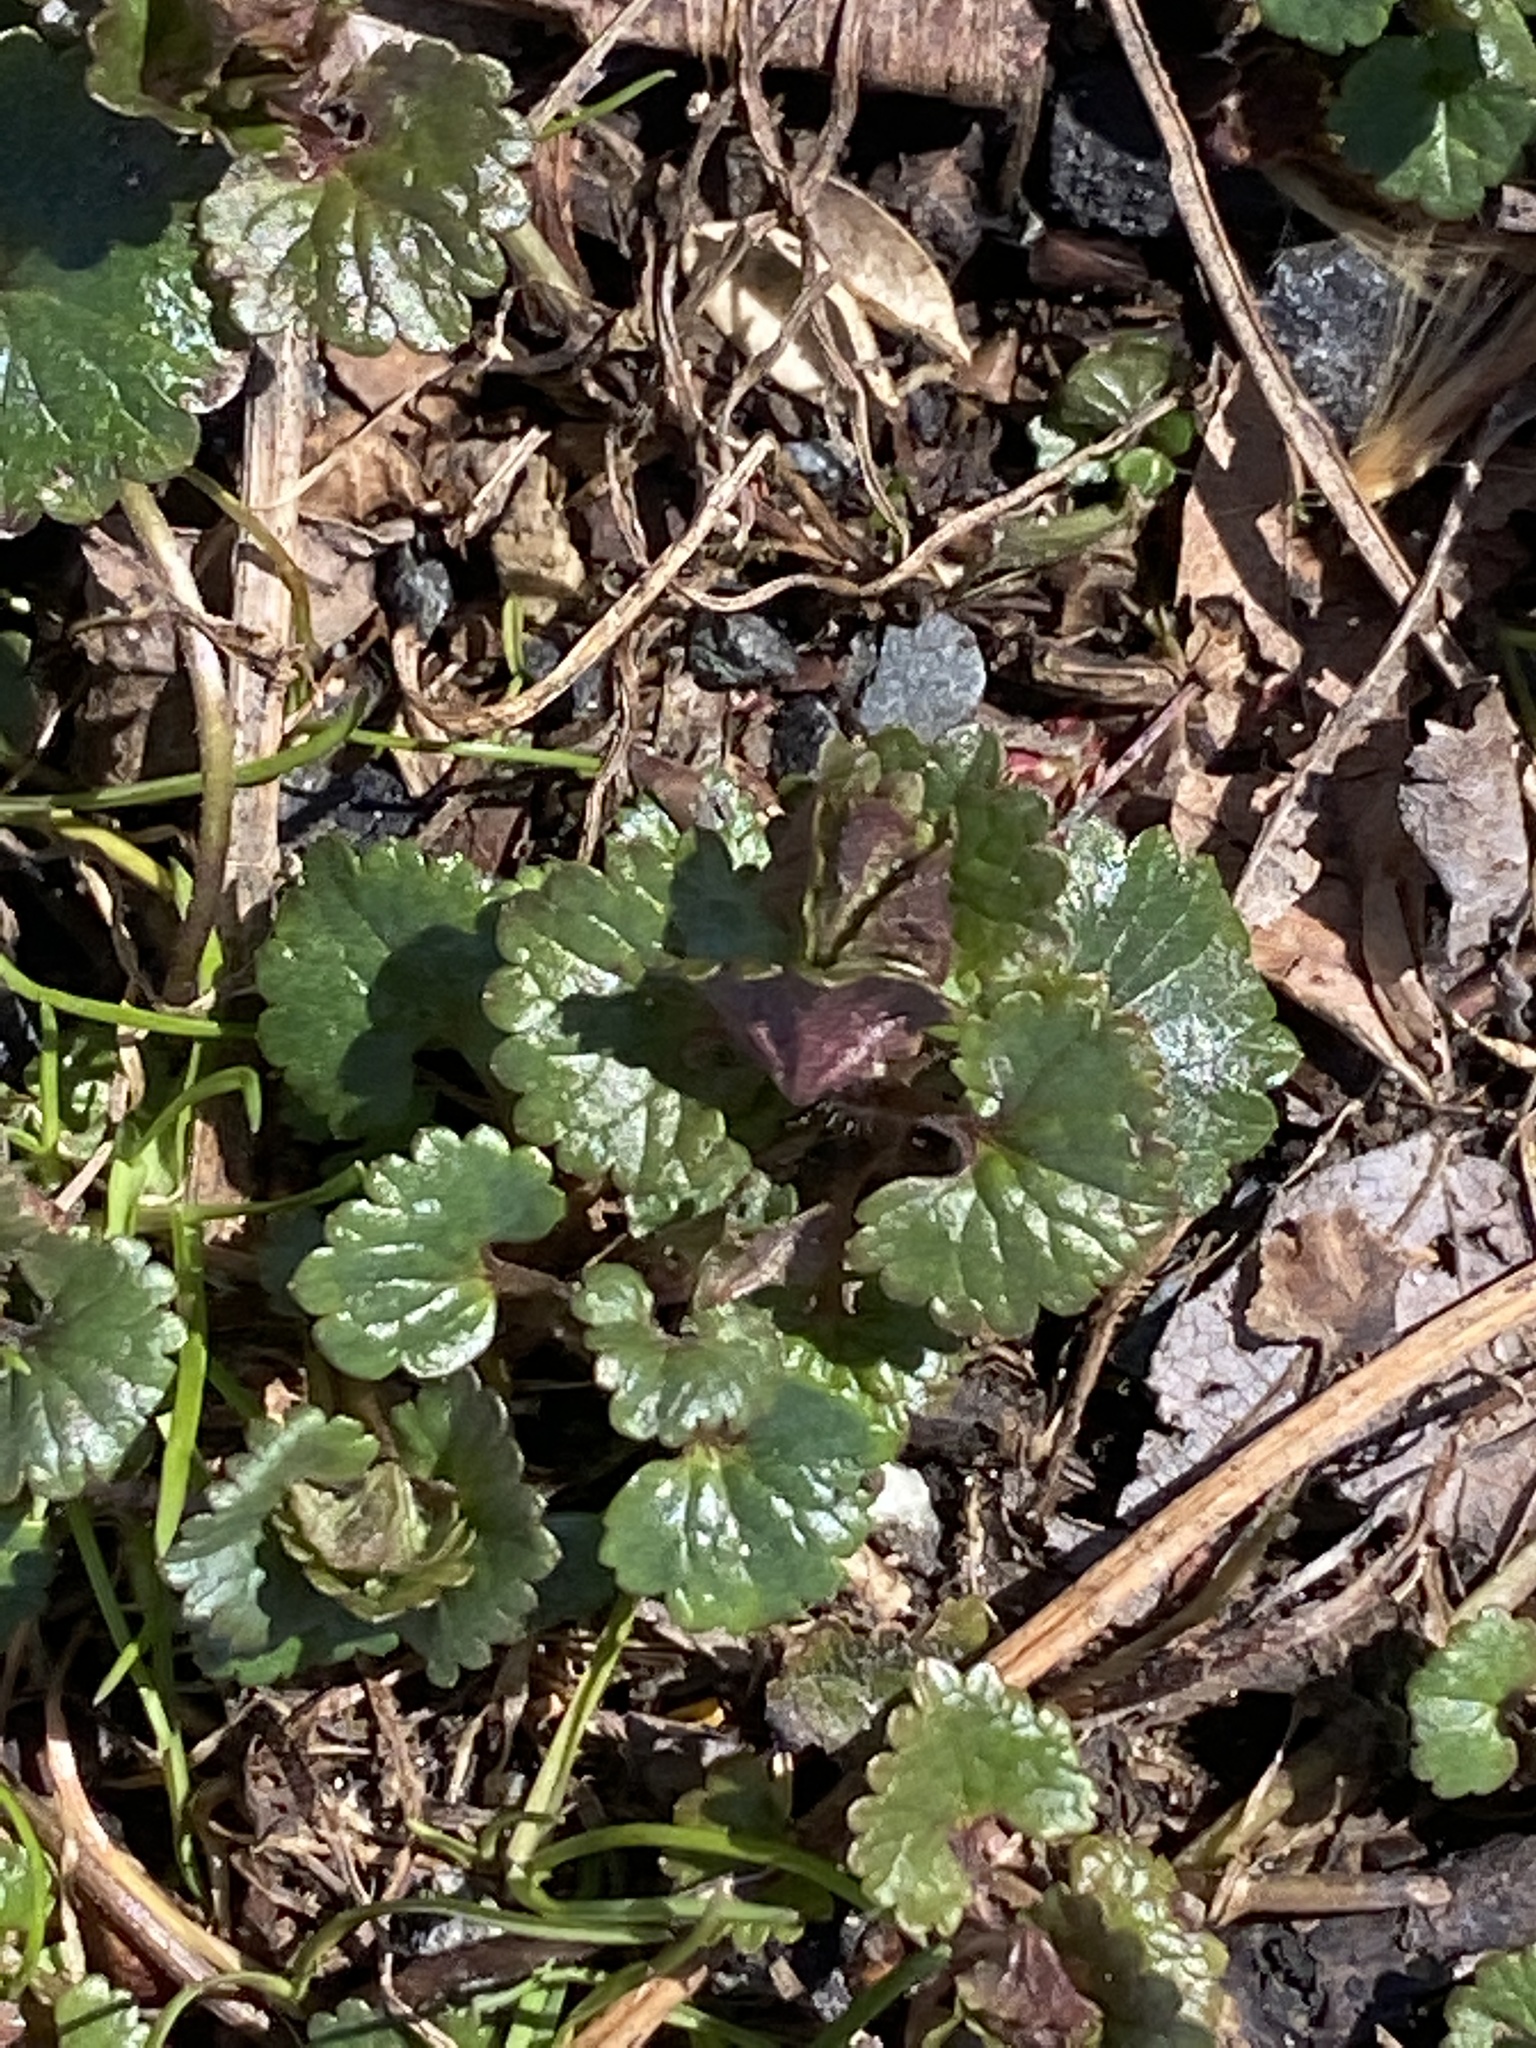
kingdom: Plantae
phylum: Tracheophyta
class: Magnoliopsida
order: Lamiales
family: Lamiaceae
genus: Glechoma
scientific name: Glechoma hederacea
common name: Ground ivy
